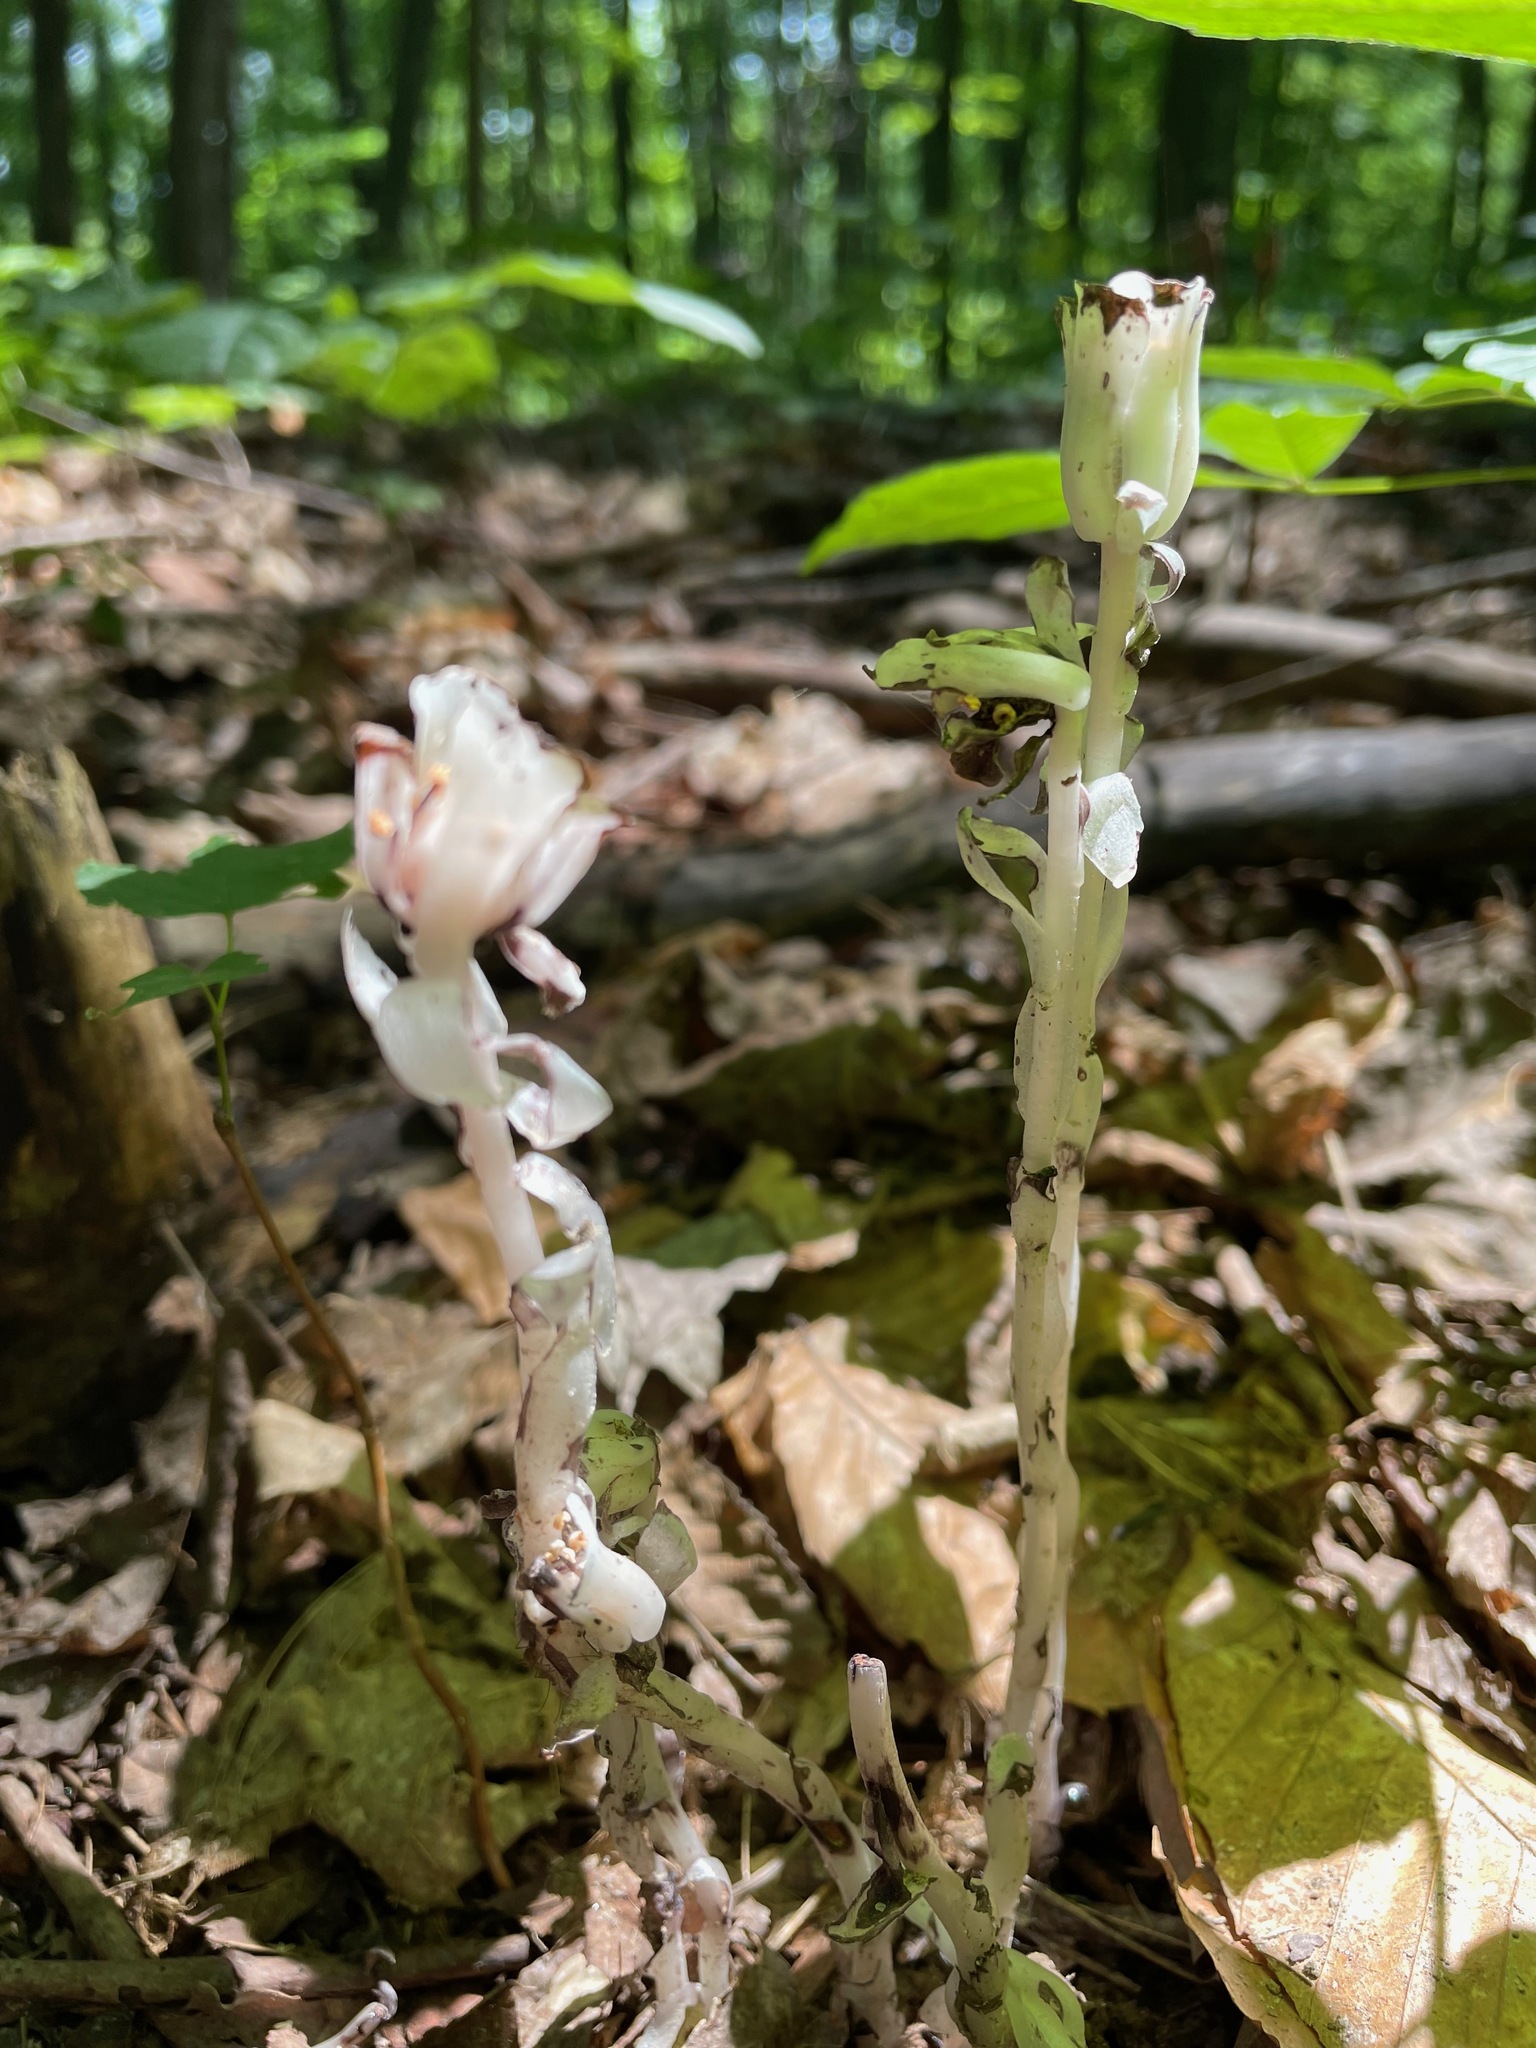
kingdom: Plantae
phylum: Tracheophyta
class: Magnoliopsida
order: Ericales
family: Ericaceae
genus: Monotropa
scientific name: Monotropa uniflora
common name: Convulsion root
